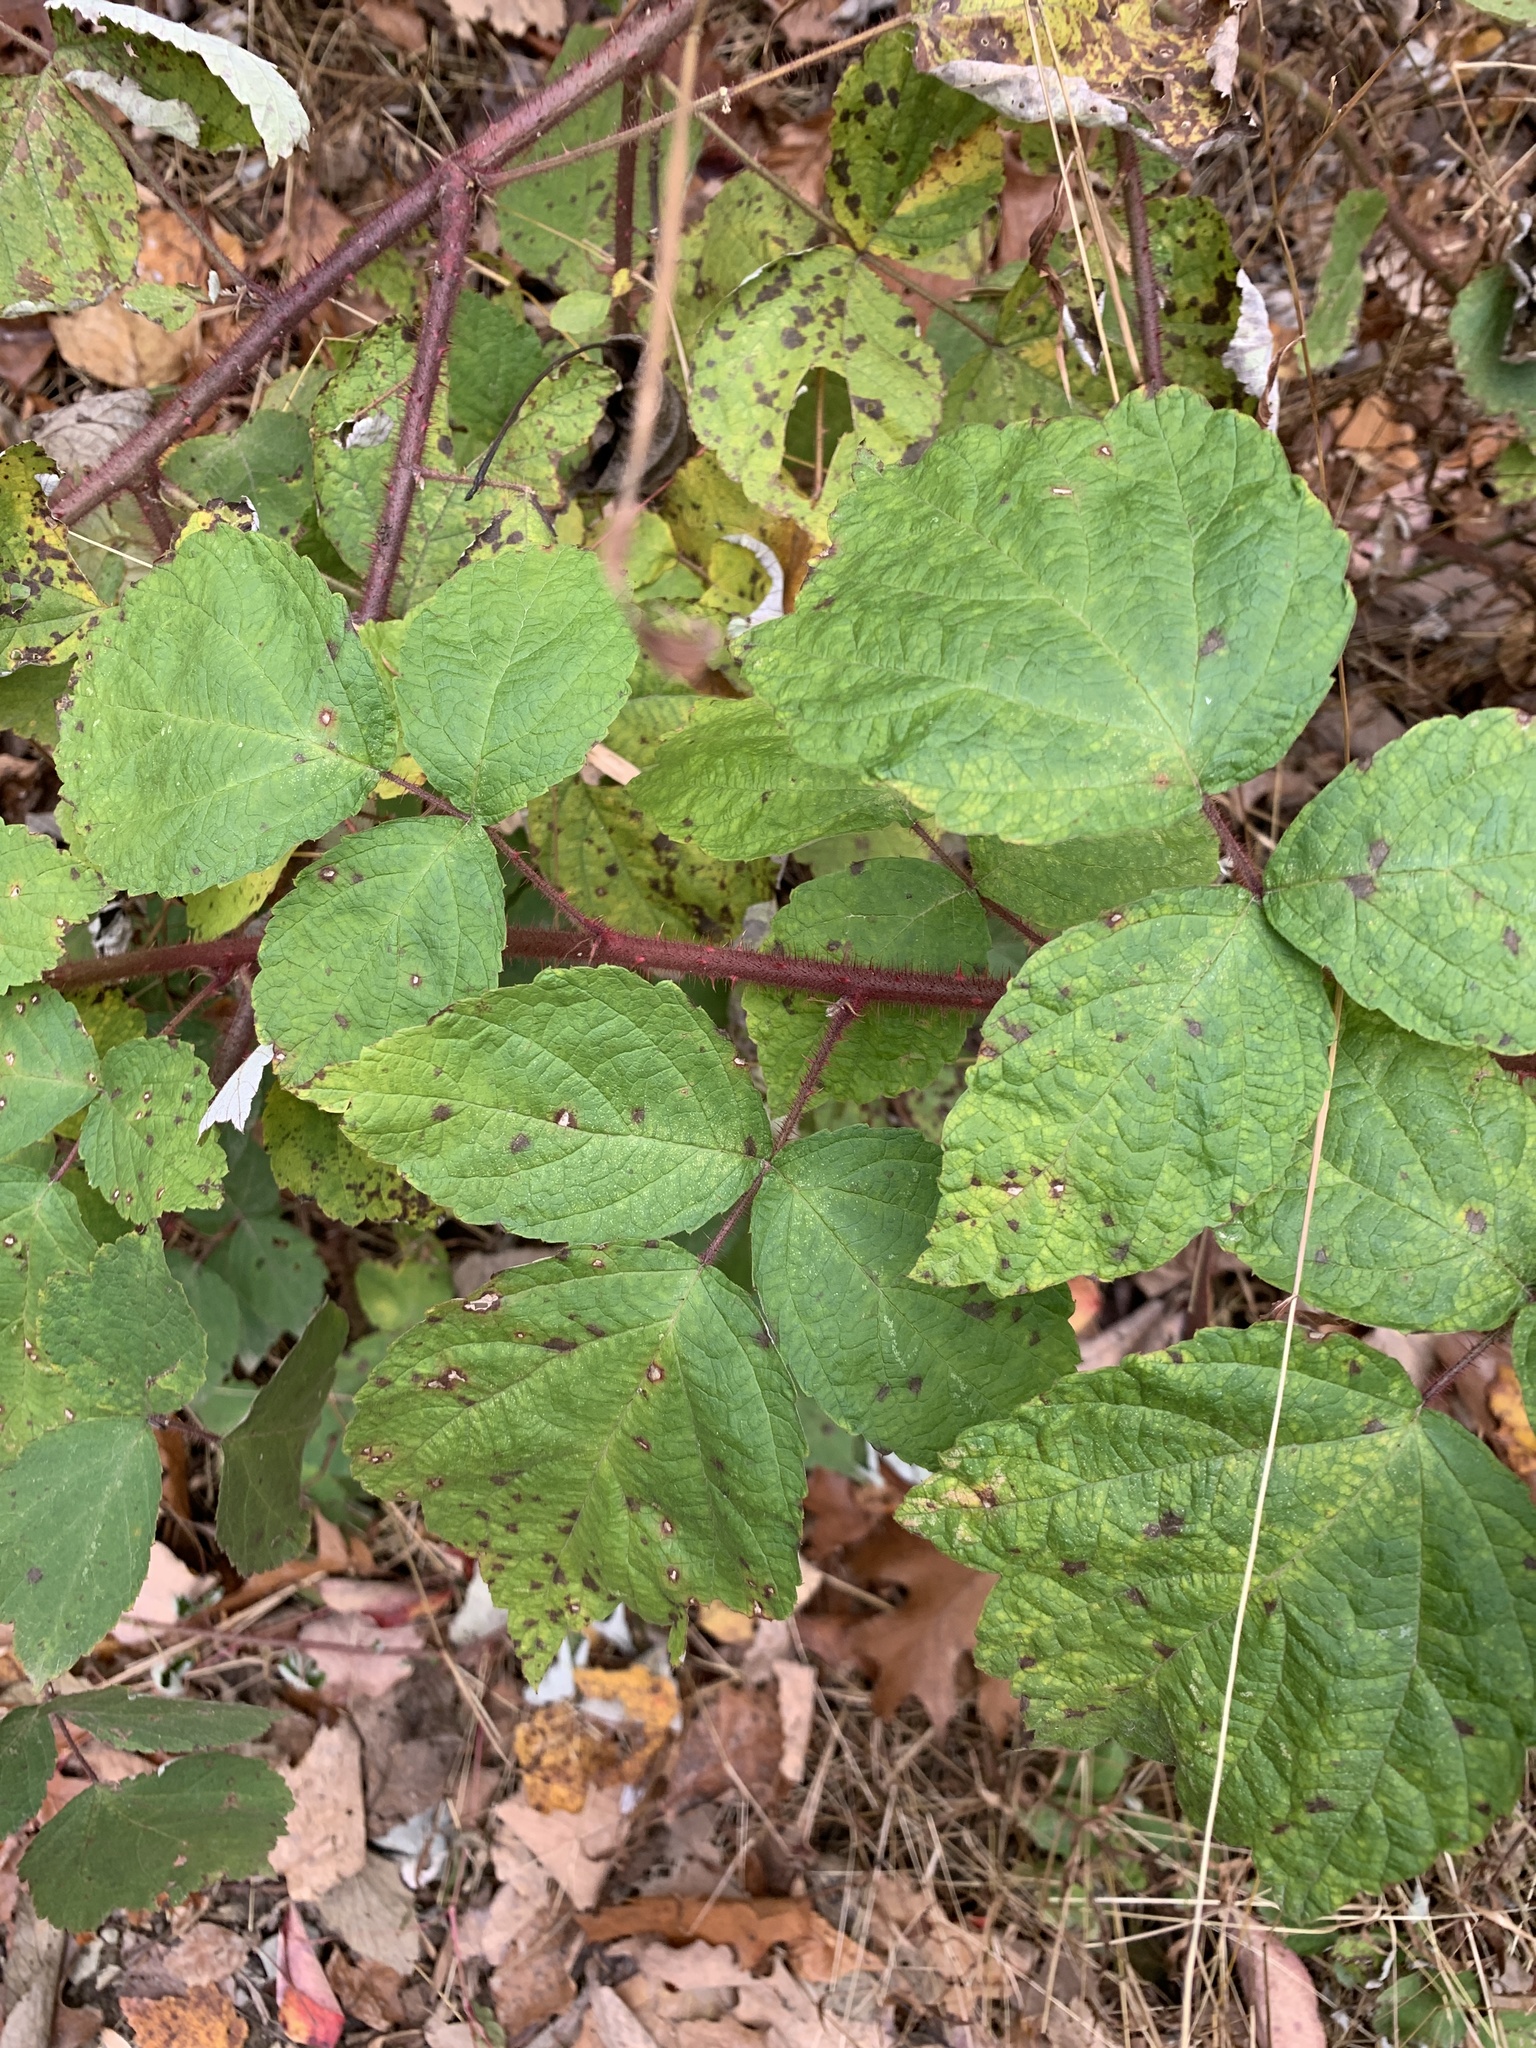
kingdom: Plantae
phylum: Tracheophyta
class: Magnoliopsida
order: Rosales
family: Rosaceae
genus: Rubus
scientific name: Rubus phoenicolasius
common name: Japanese wineberry
